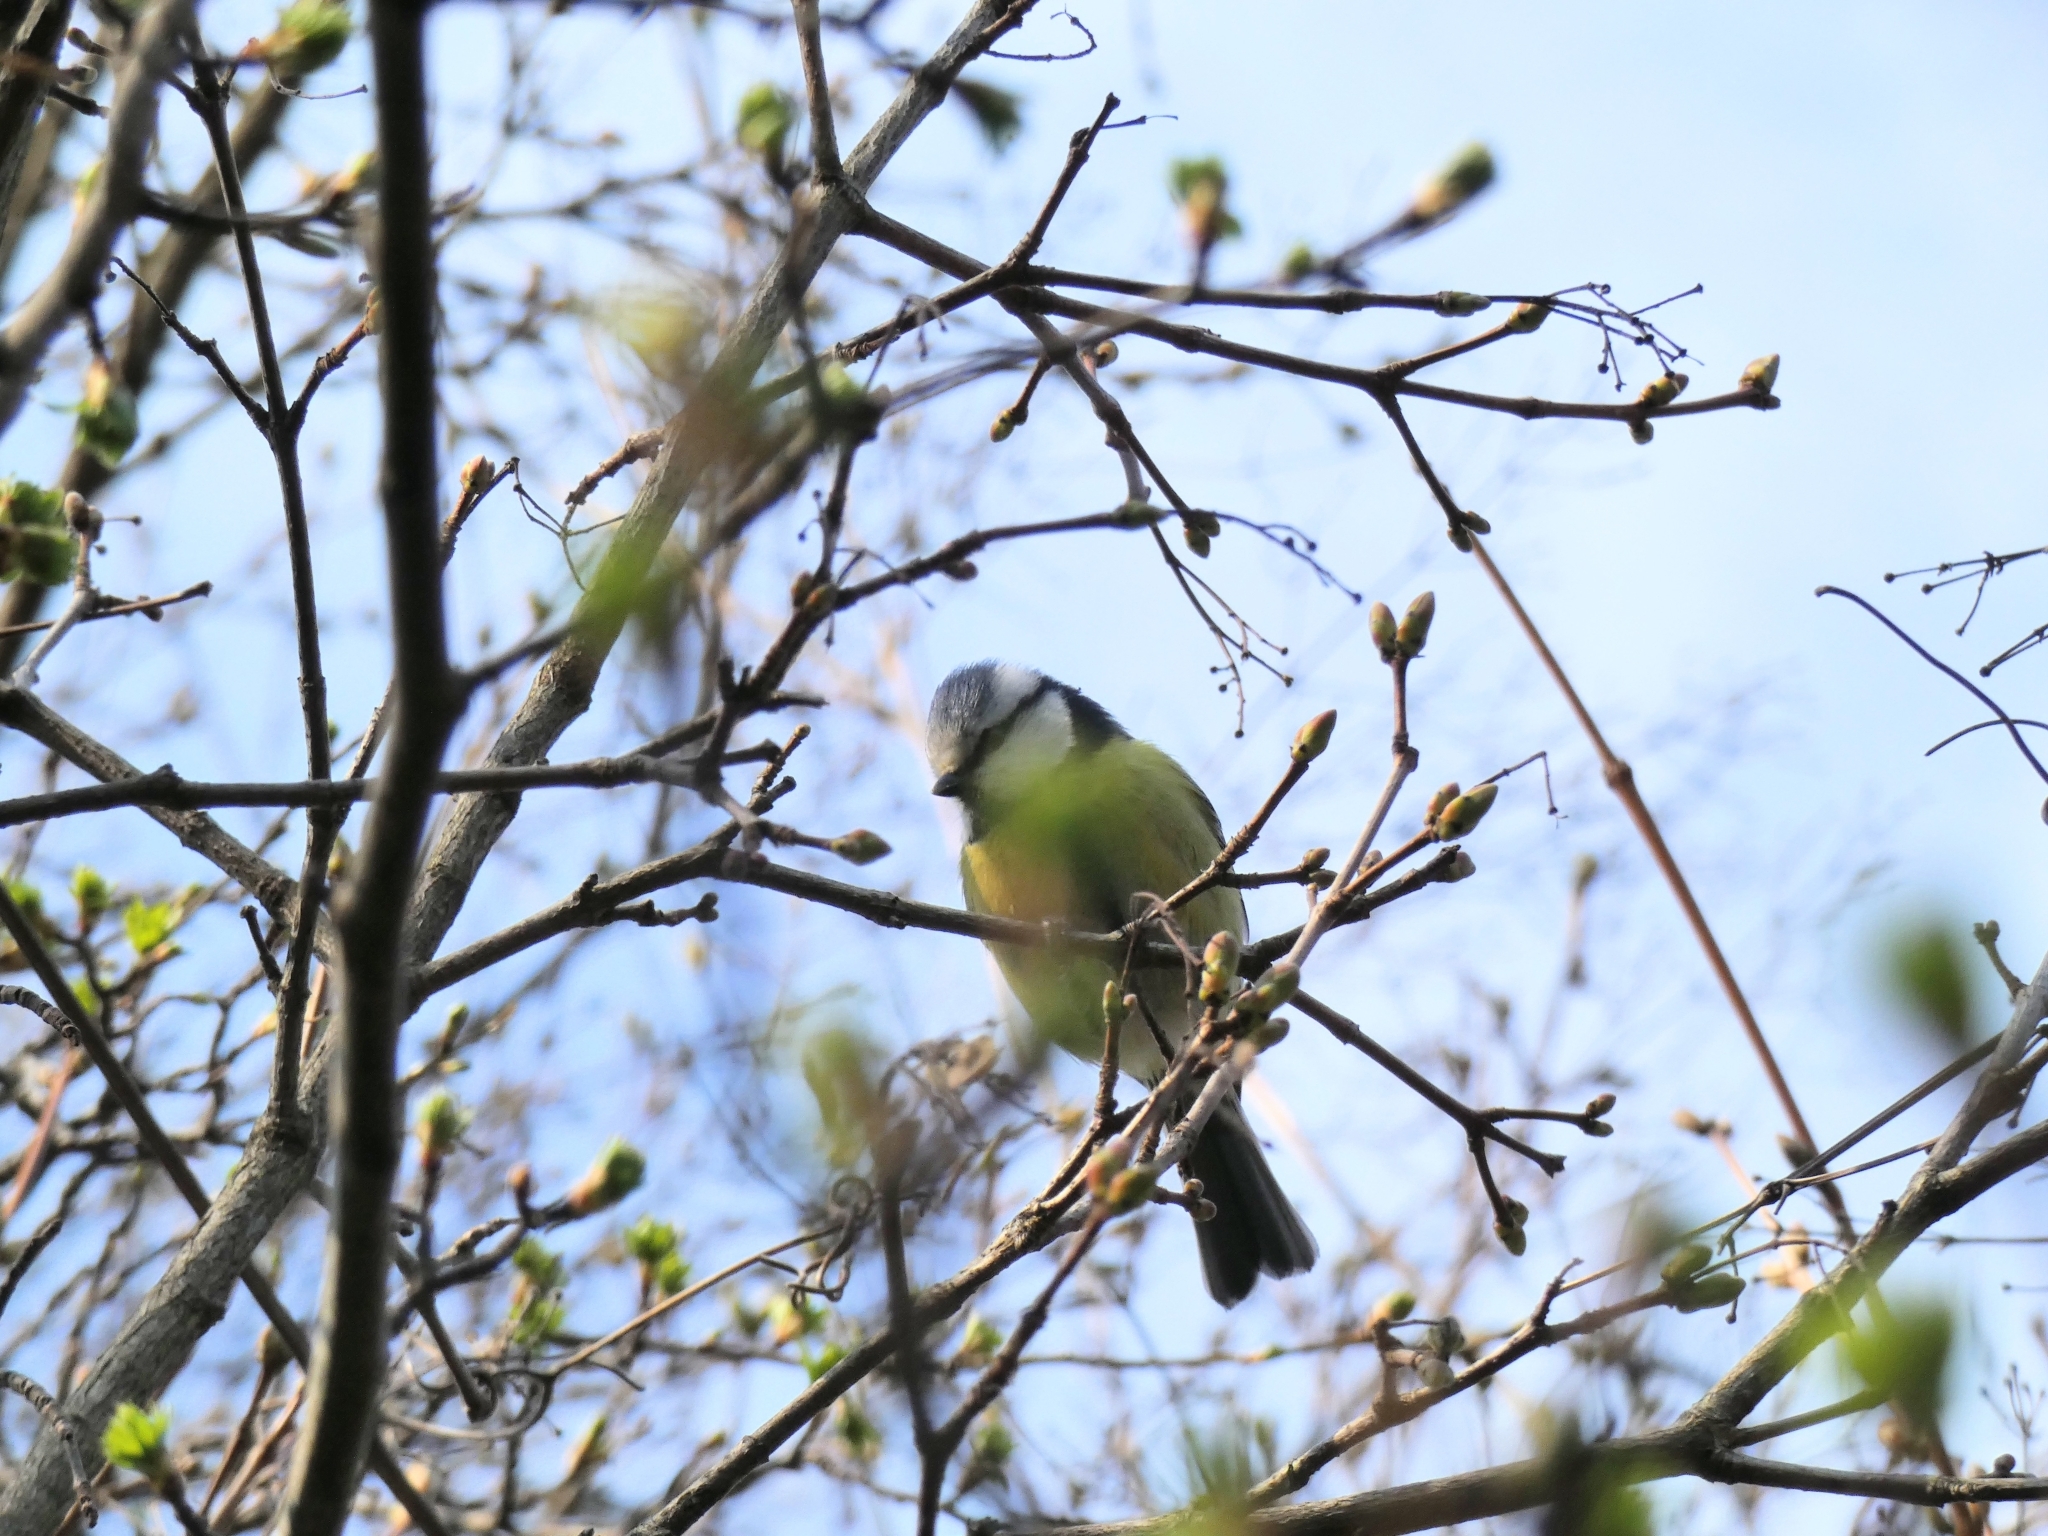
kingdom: Animalia
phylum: Chordata
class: Aves
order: Passeriformes
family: Paridae
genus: Cyanistes
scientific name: Cyanistes caeruleus
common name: Eurasian blue tit
